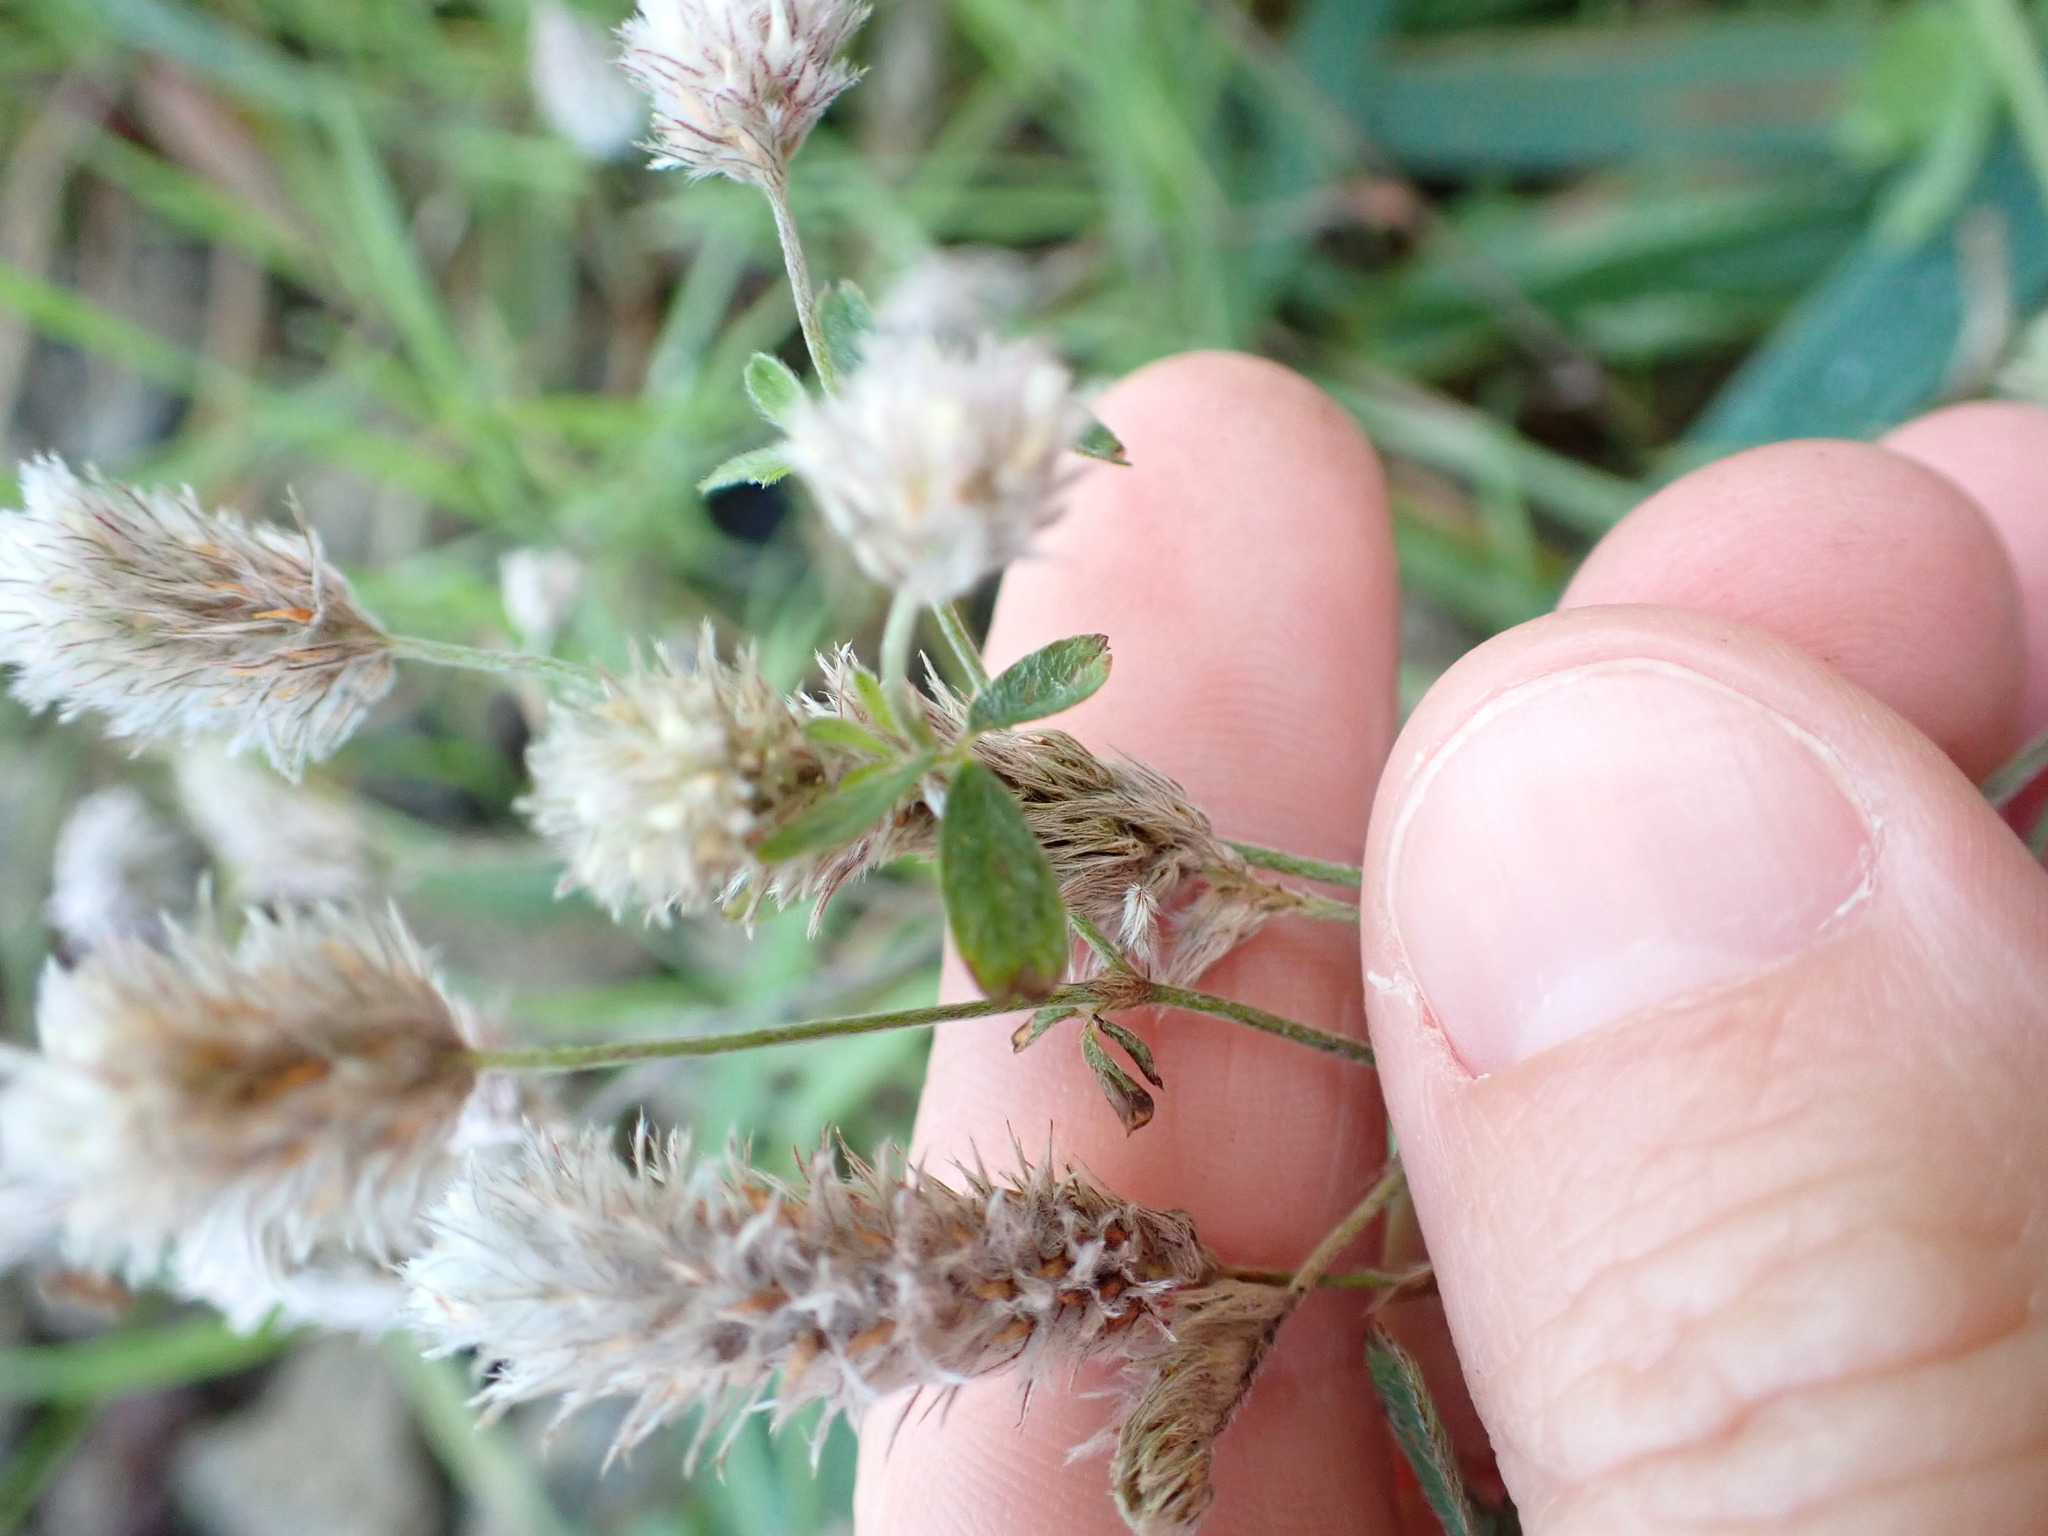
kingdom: Plantae
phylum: Tracheophyta
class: Magnoliopsida
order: Fabales
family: Fabaceae
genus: Trifolium
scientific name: Trifolium arvense
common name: Hare's-foot clover
